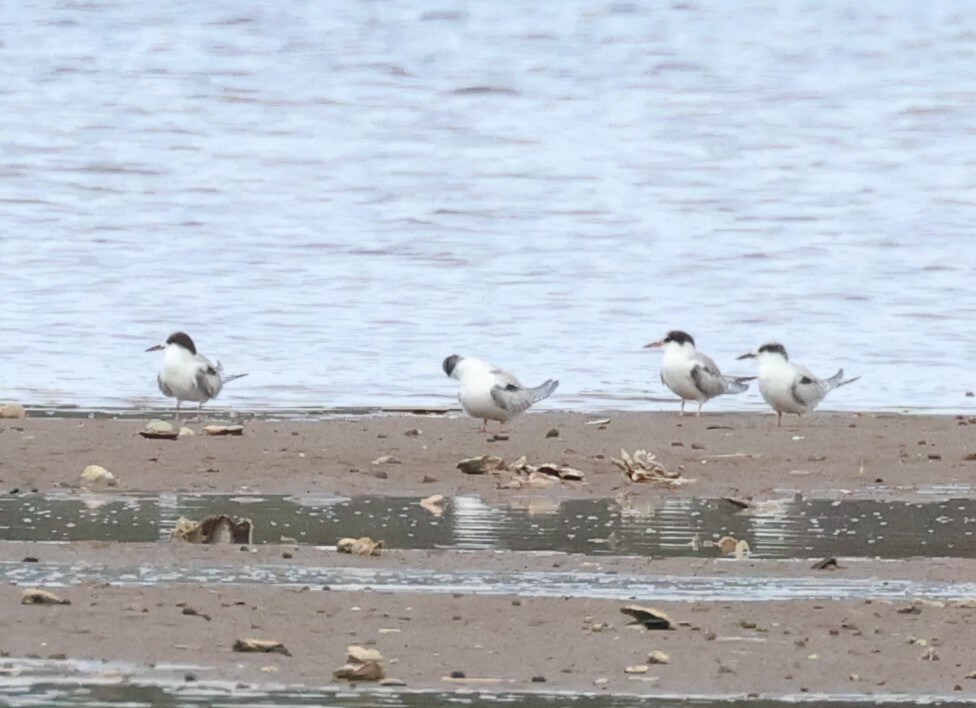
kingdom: Animalia
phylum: Chordata
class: Aves
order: Charadriiformes
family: Laridae
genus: Sterna
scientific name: Sterna hirundo
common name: Common tern
